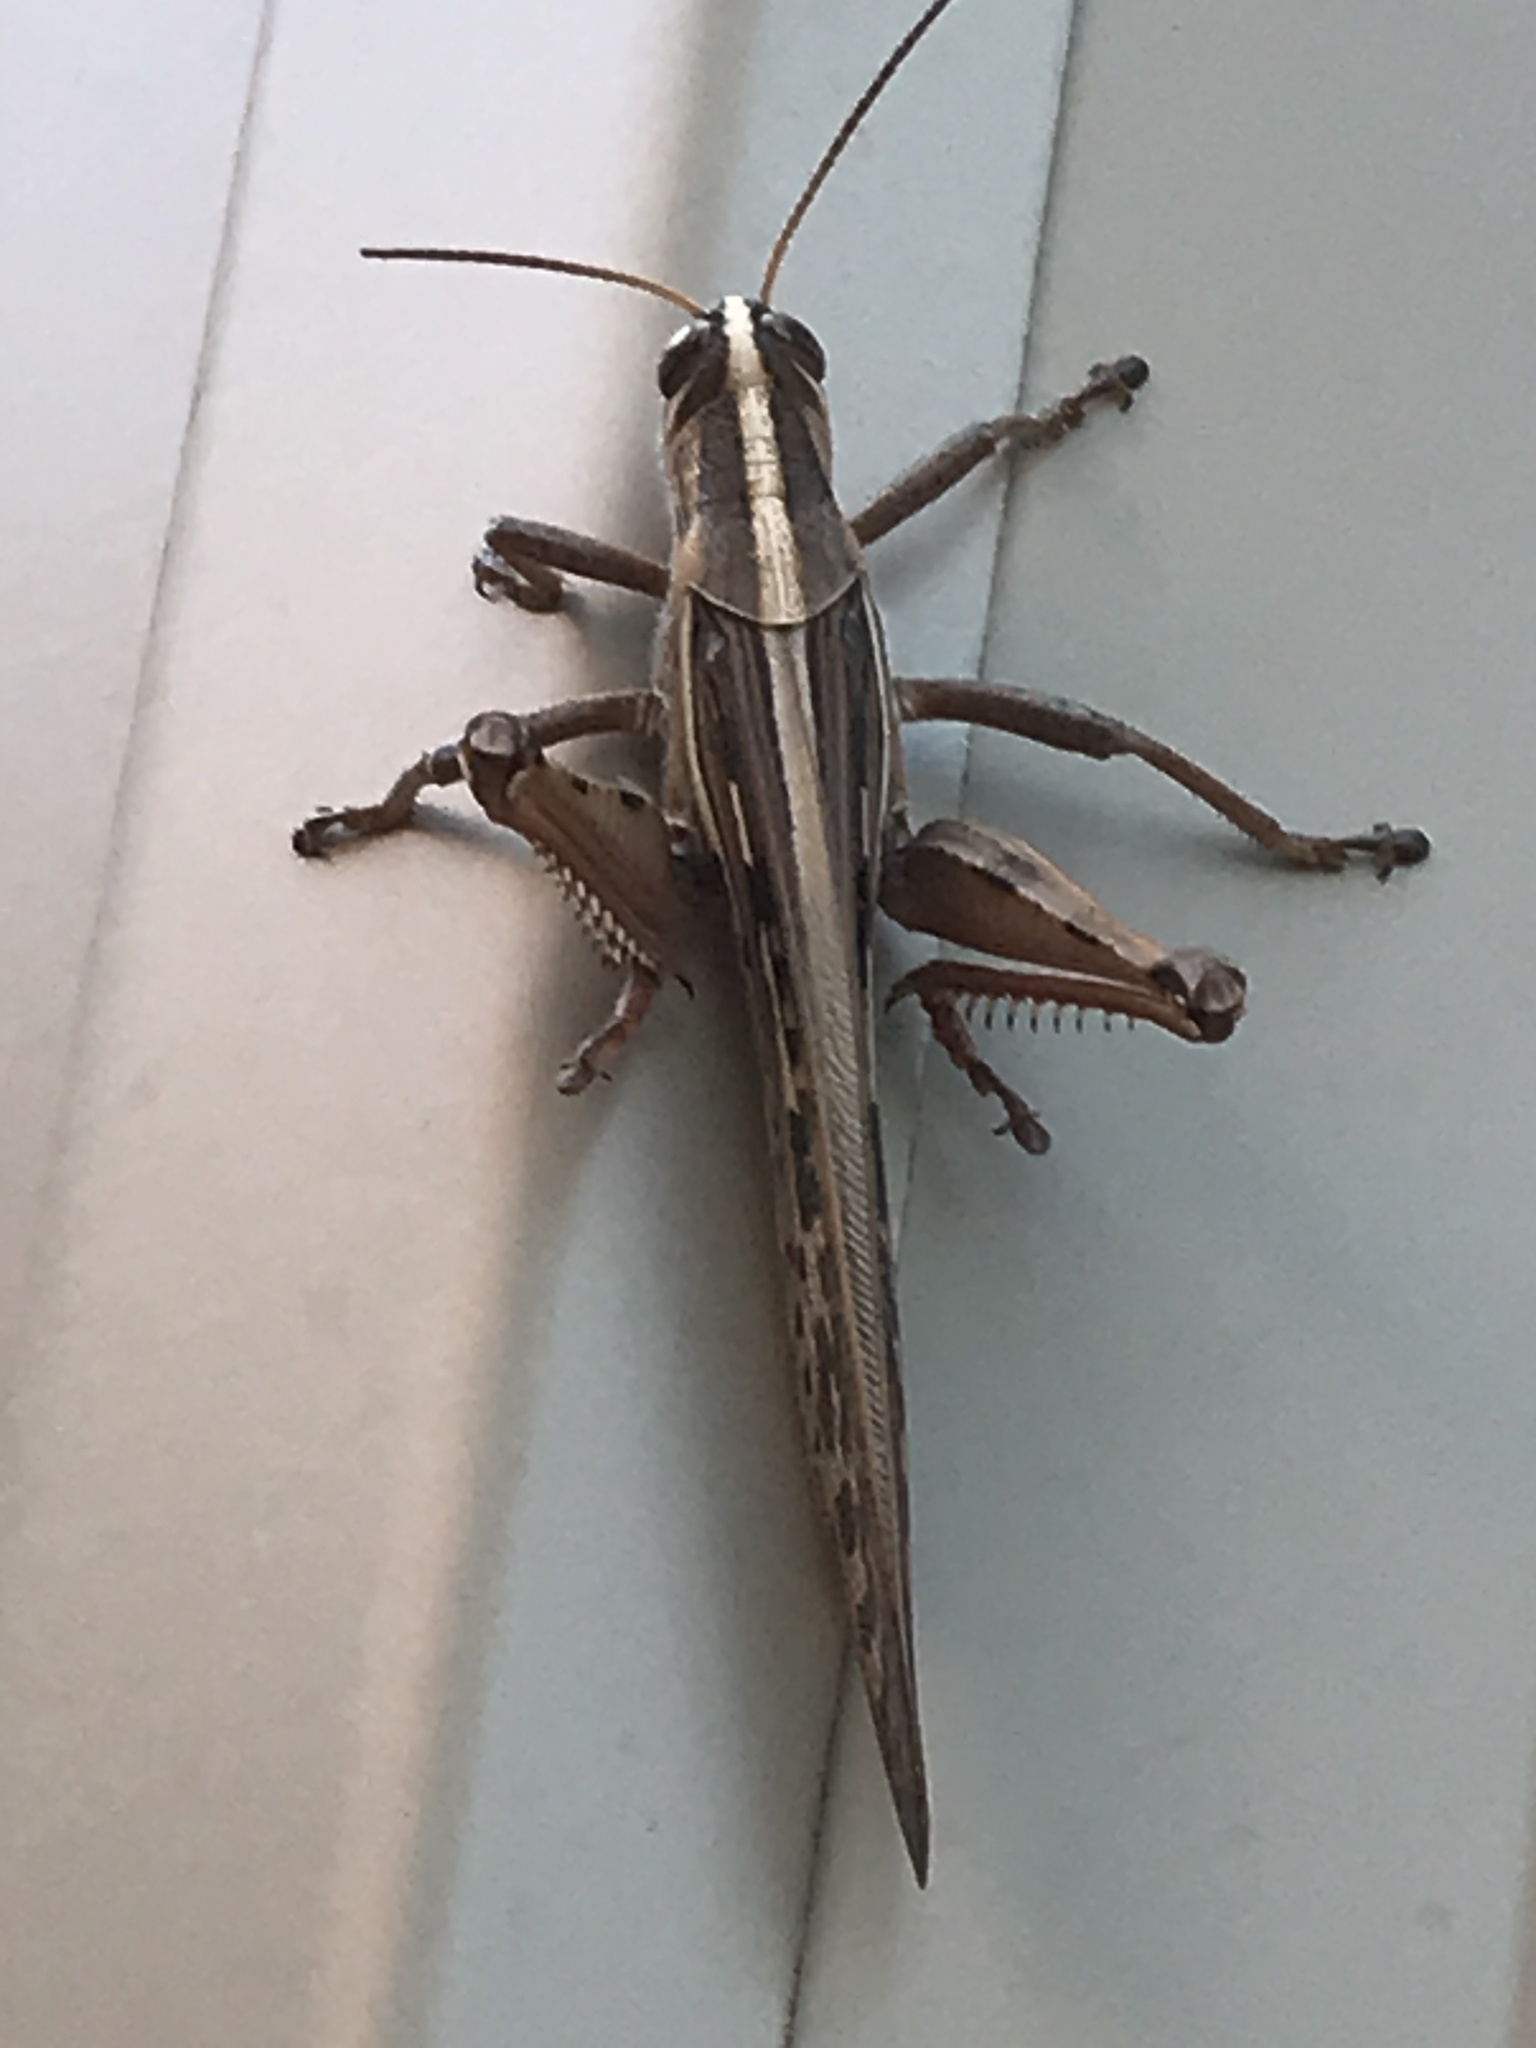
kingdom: Animalia
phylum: Arthropoda
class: Insecta
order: Orthoptera
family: Acrididae
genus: Schistocerca
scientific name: Schistocerca americana
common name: American bird locust
